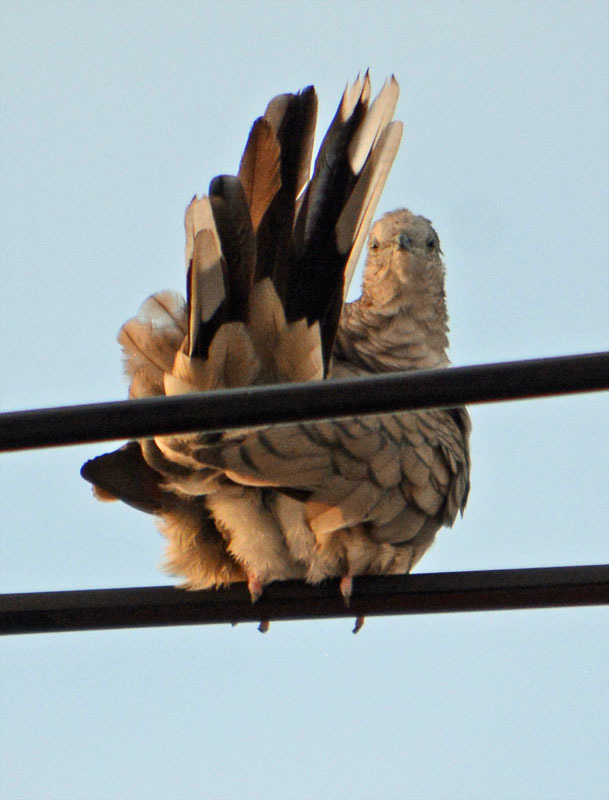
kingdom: Animalia
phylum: Chordata
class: Aves
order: Columbiformes
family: Columbidae
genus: Columbina
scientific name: Columbina inca
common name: Inca dove
